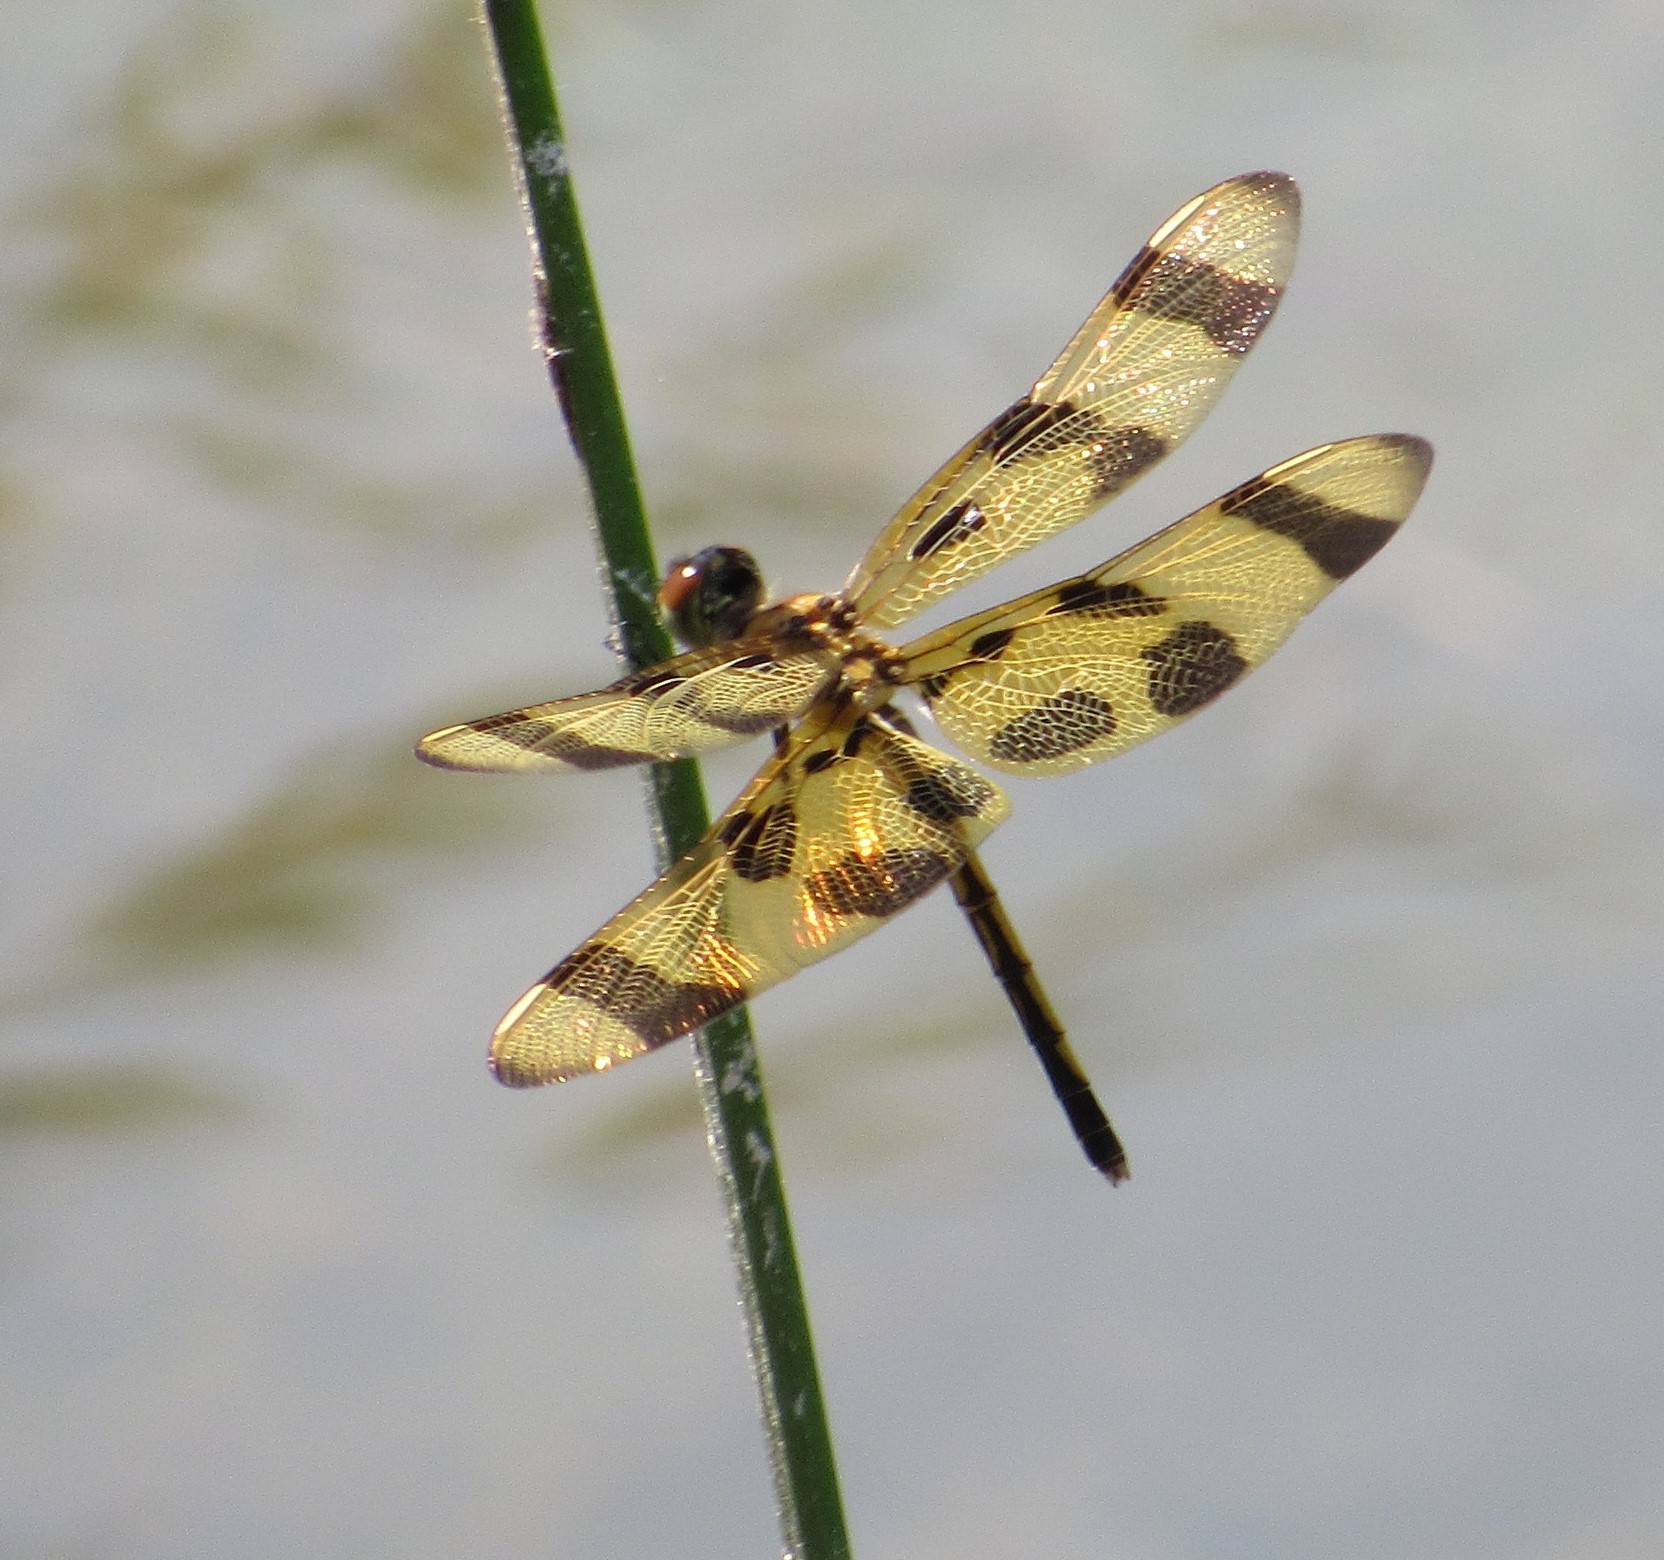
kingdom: Animalia
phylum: Arthropoda
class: Insecta
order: Odonata
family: Libellulidae
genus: Celithemis
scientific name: Celithemis eponina
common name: Halloween pennant
